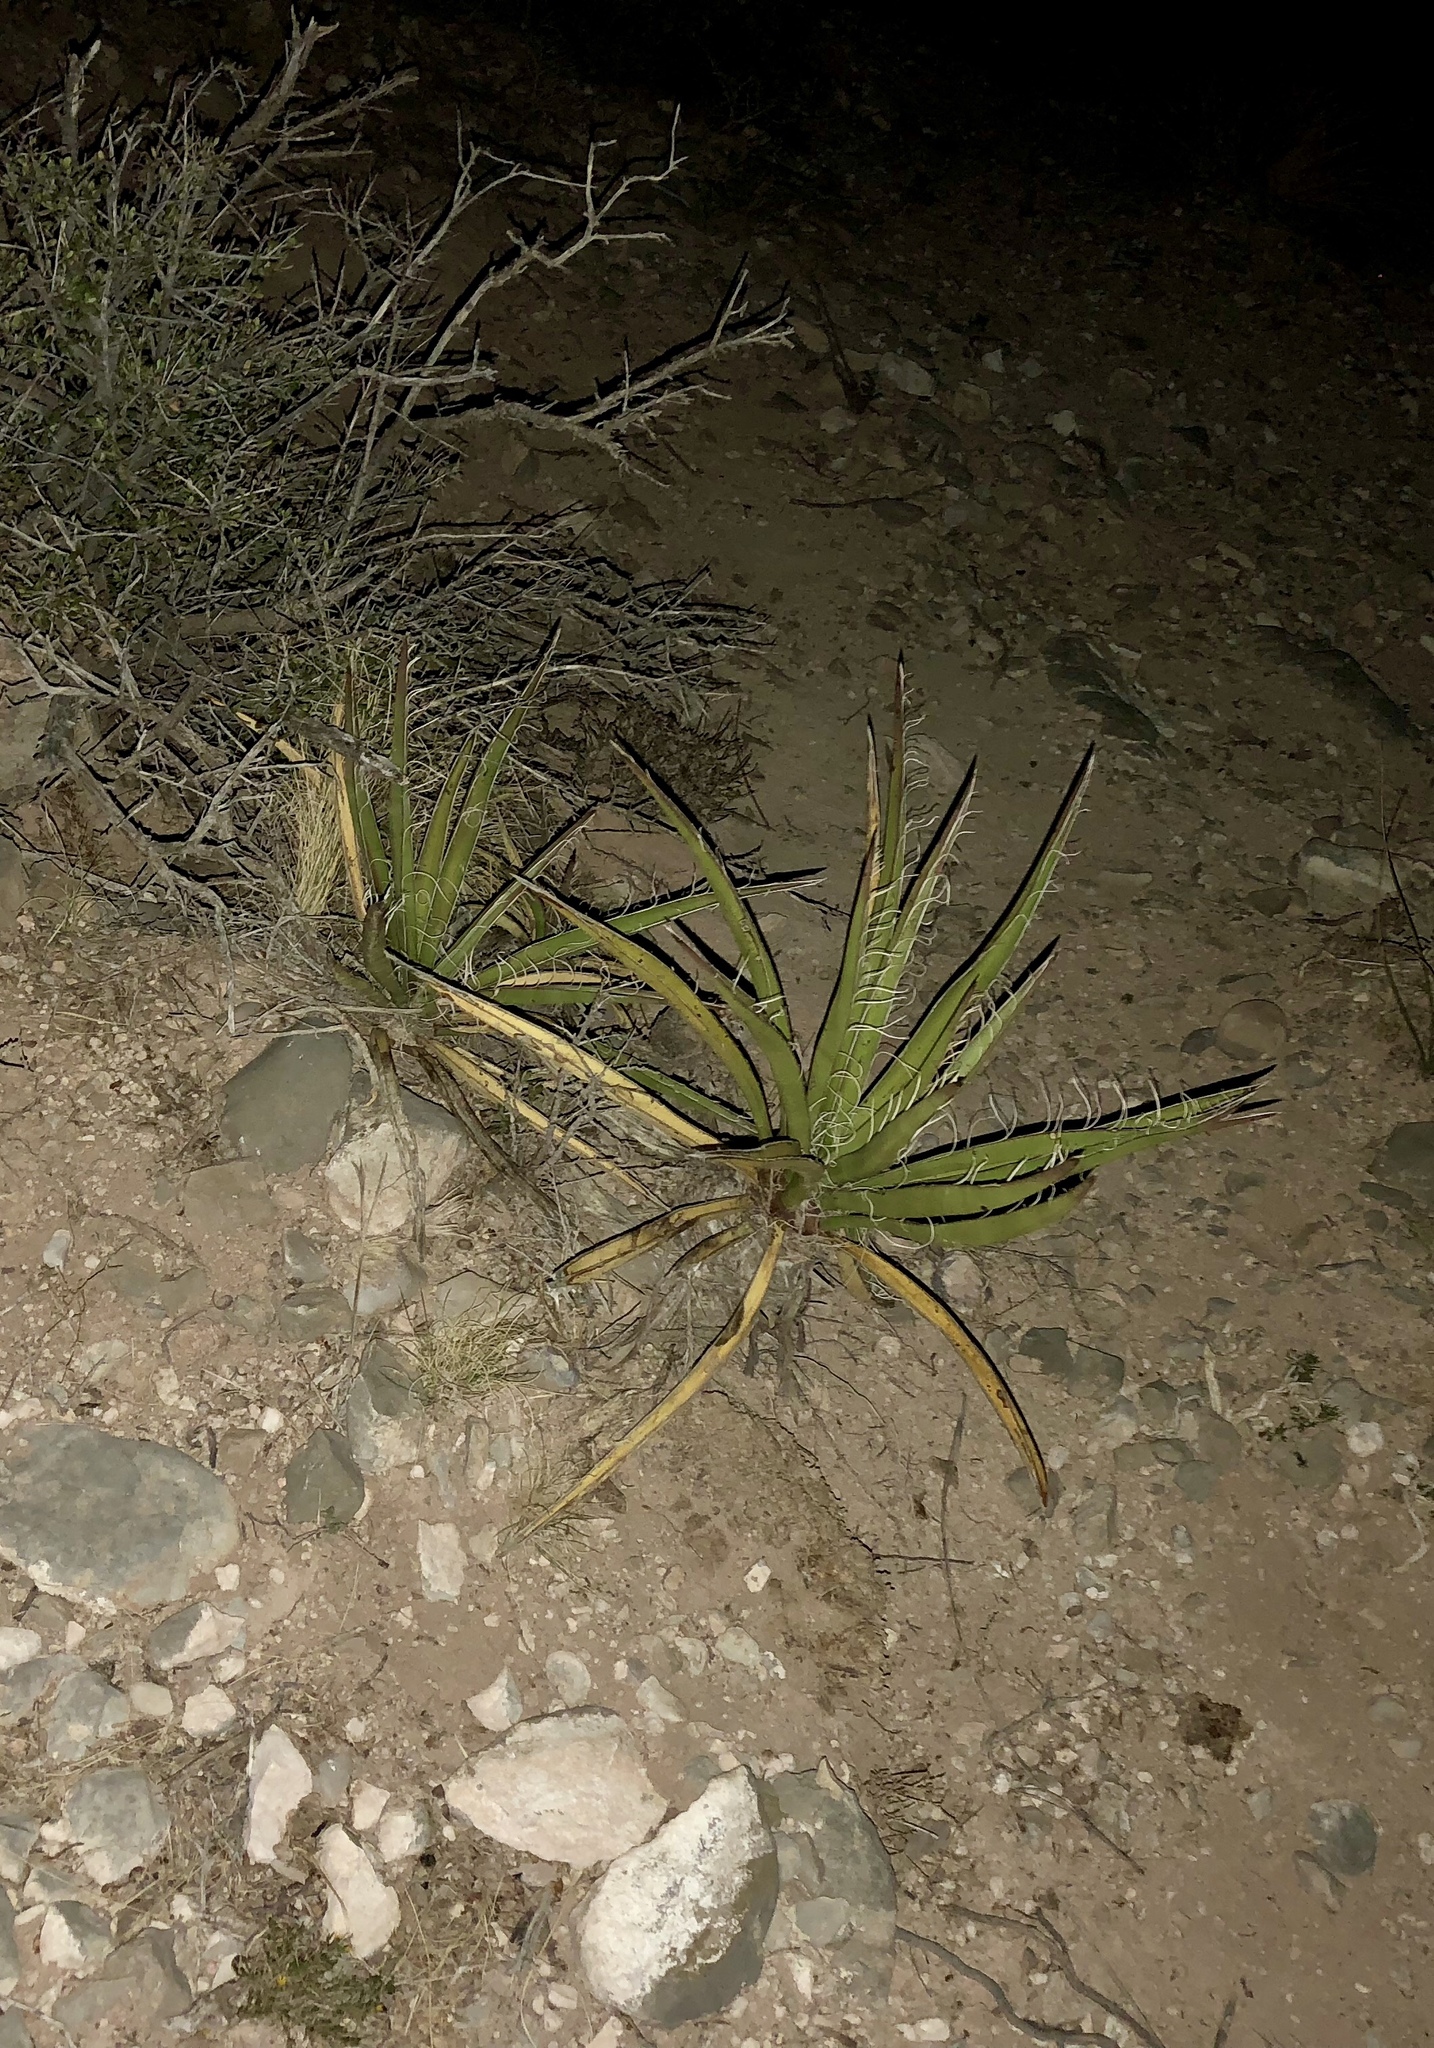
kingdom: Plantae
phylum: Tracheophyta
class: Liliopsida
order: Asparagales
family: Asparagaceae
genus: Yucca
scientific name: Yucca baccata
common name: Banana yucca
